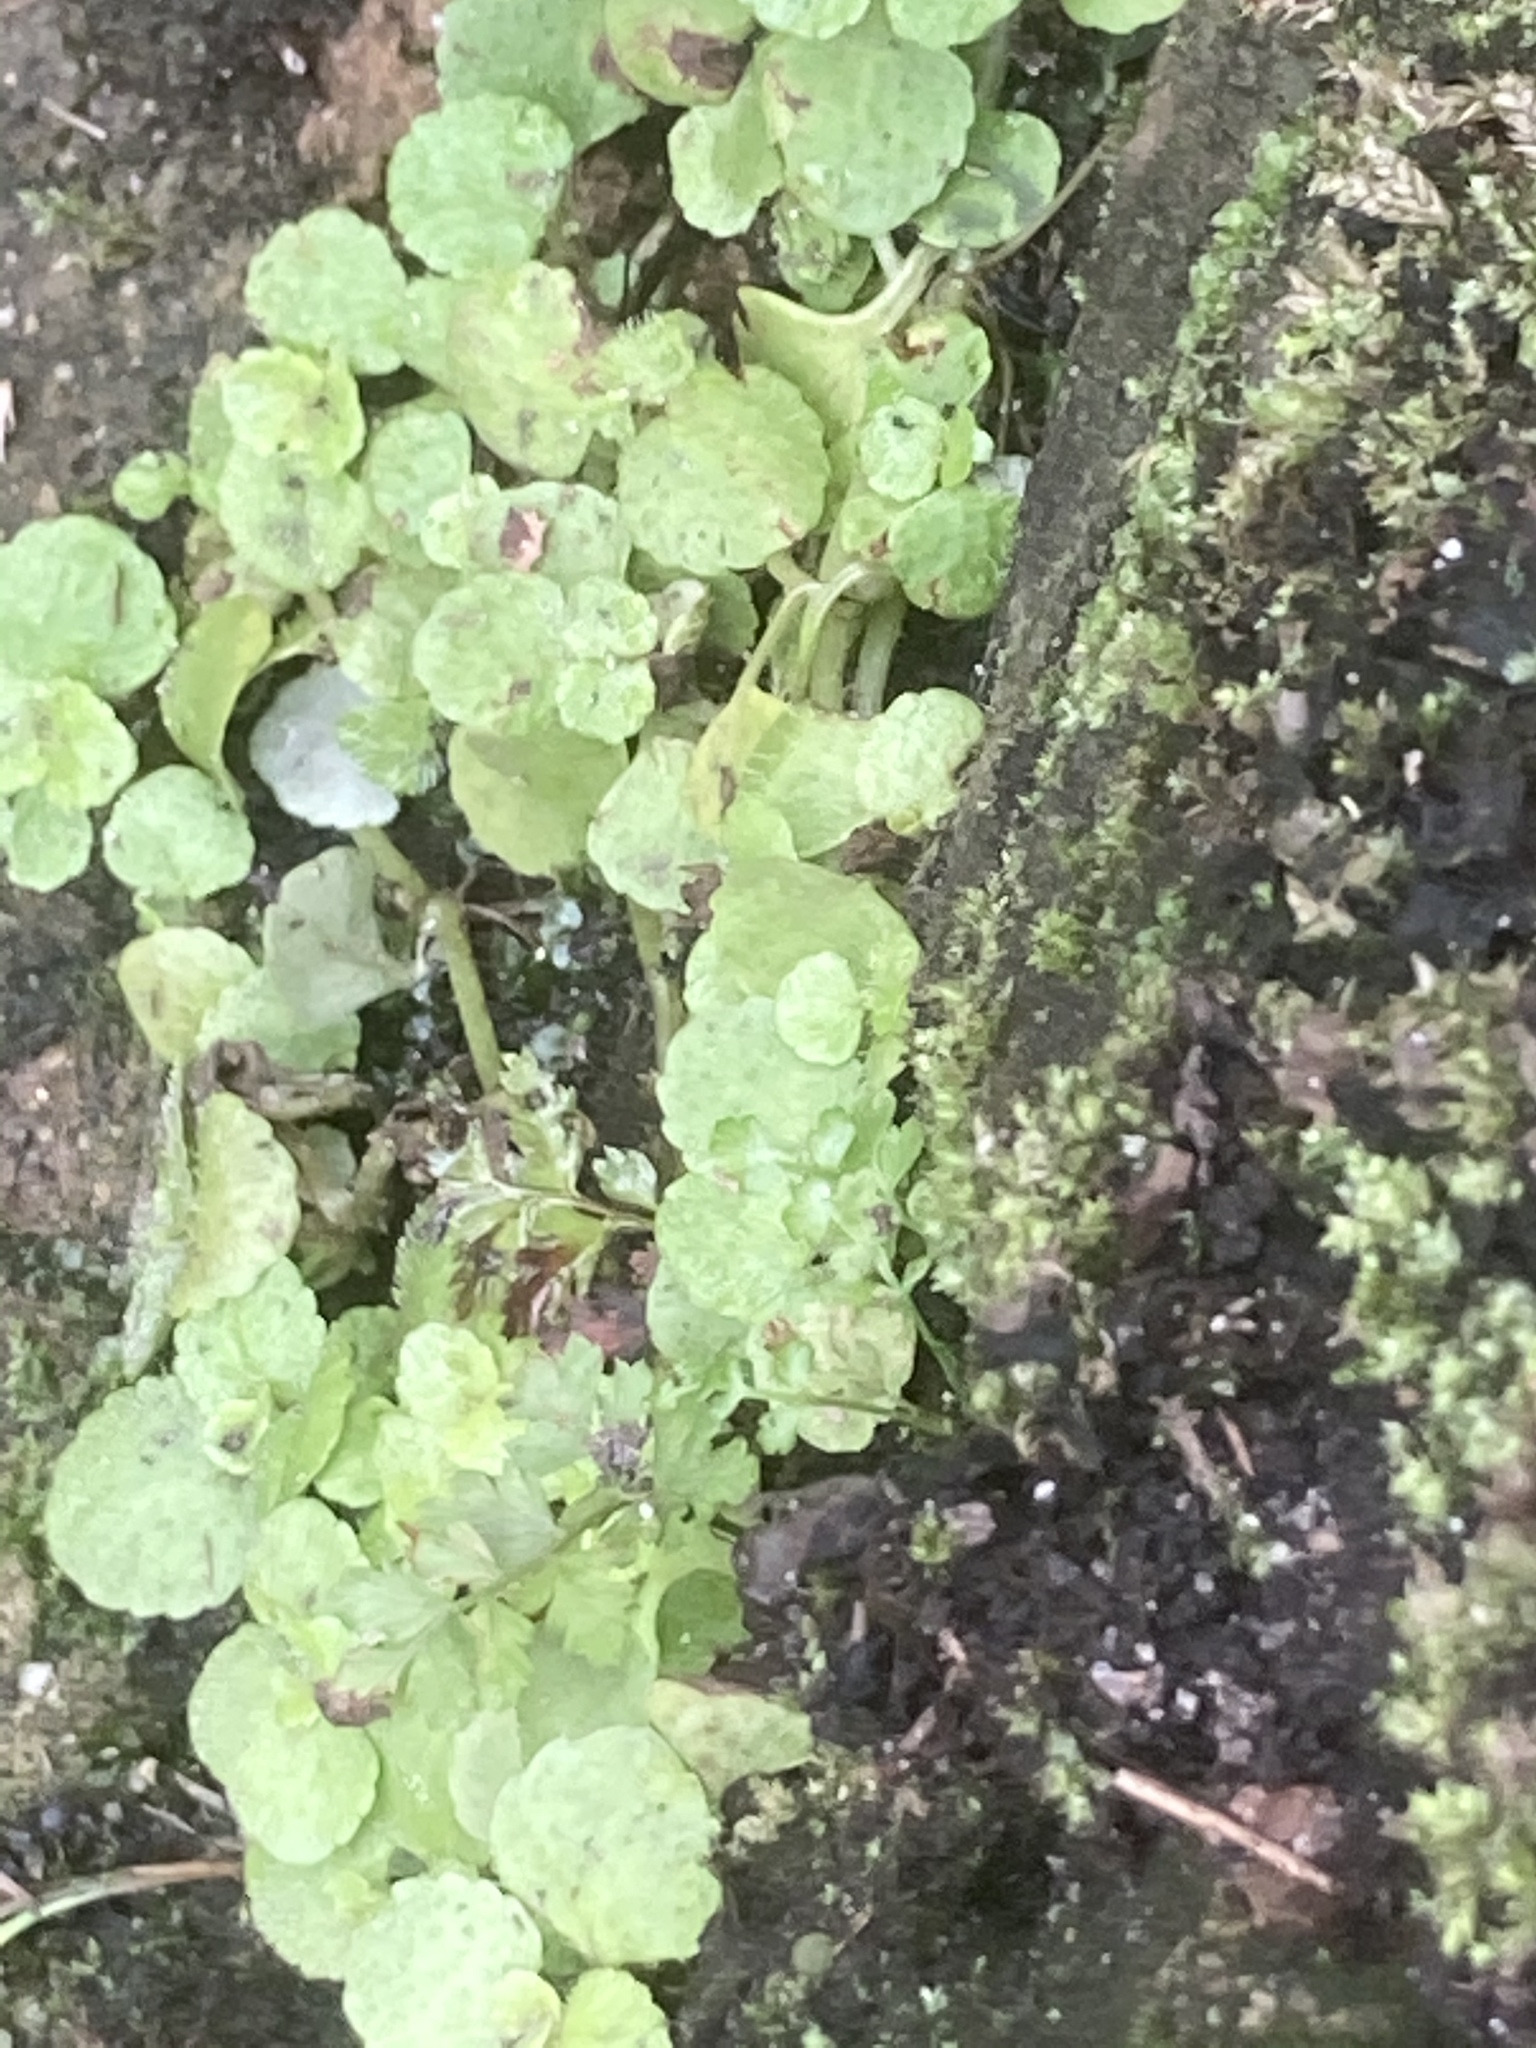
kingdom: Plantae
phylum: Tracheophyta
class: Magnoliopsida
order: Saxifragales
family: Saxifragaceae
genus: Chrysosplenium
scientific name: Chrysosplenium oppositifolium
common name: Opposite-leaved golden-saxifrage
